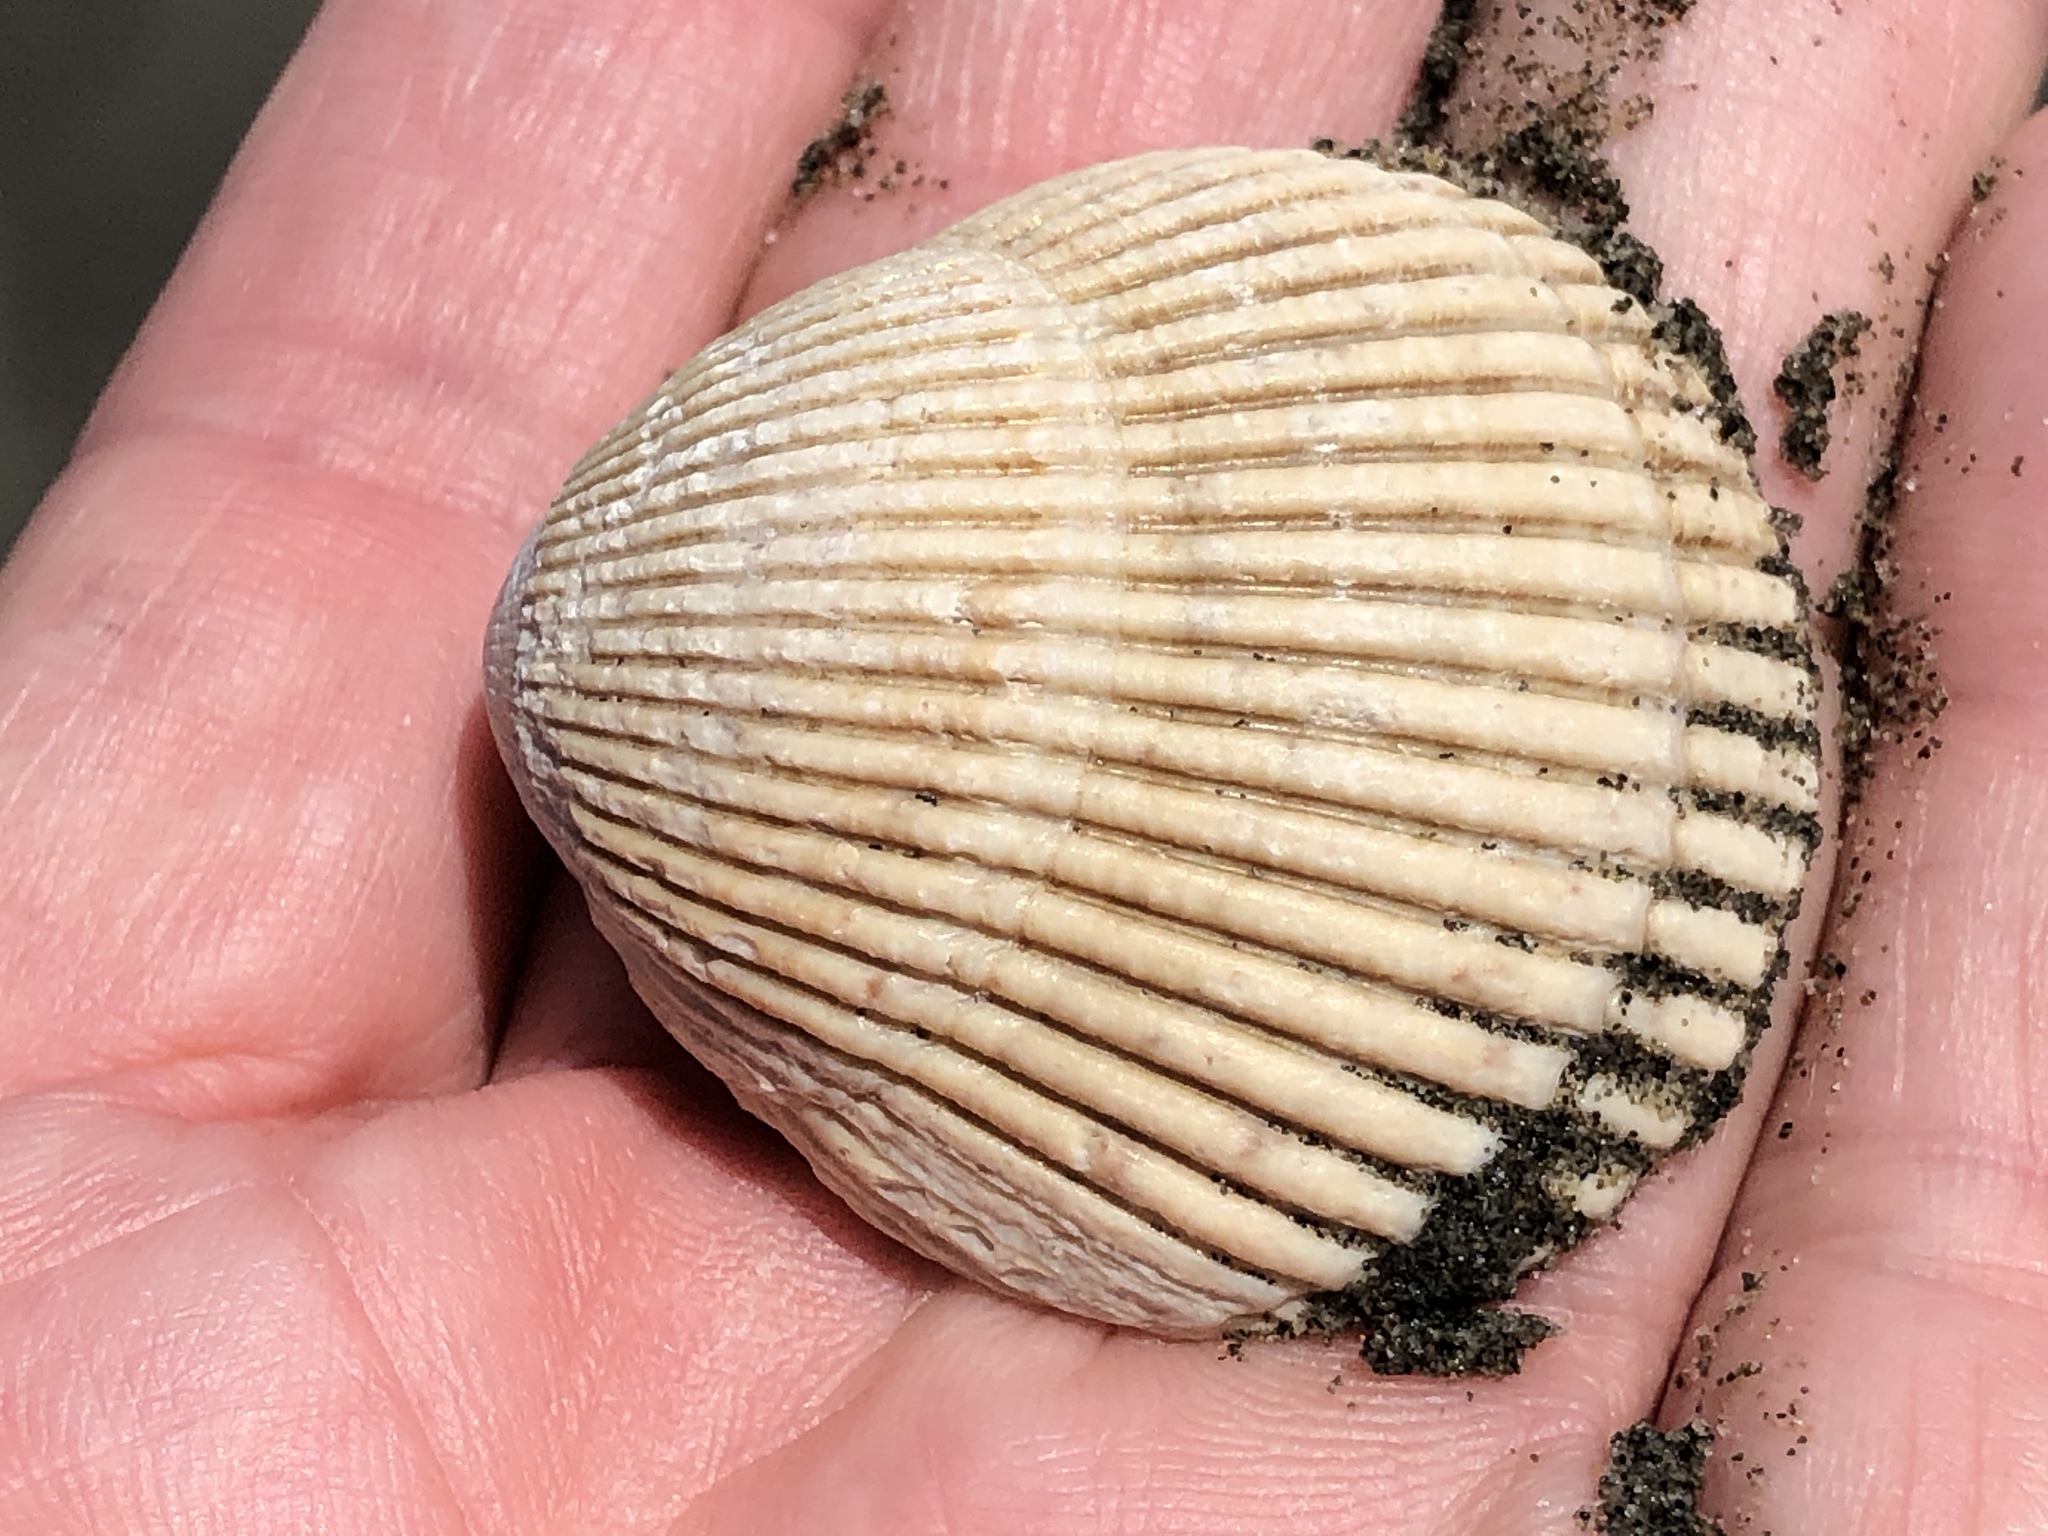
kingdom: Animalia
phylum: Mollusca
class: Bivalvia
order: Cardiida
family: Cardiidae
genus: Clinocardium
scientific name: Clinocardium nuttallii
